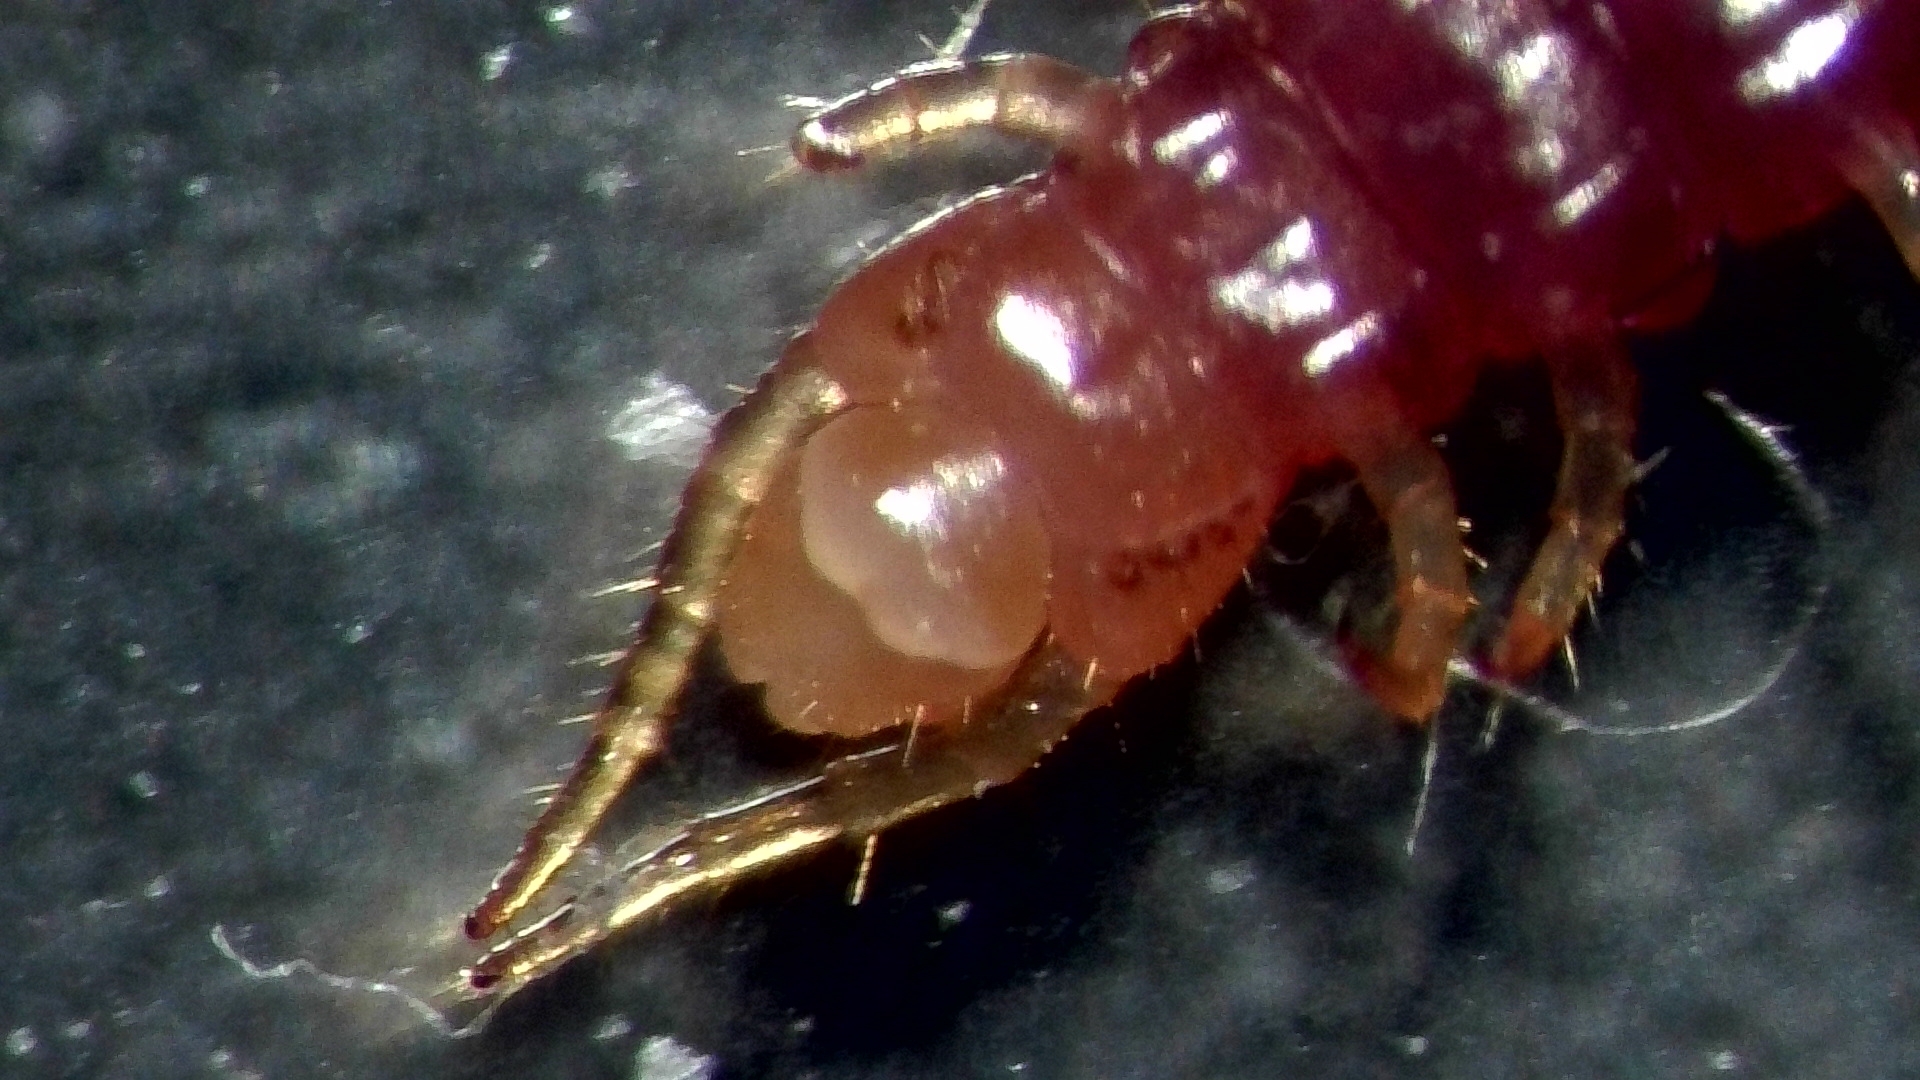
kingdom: Animalia
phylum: Arthropoda
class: Chilopoda
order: Geophilomorpha
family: Geophilidae
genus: Geophilus
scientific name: Geophilus easoni
